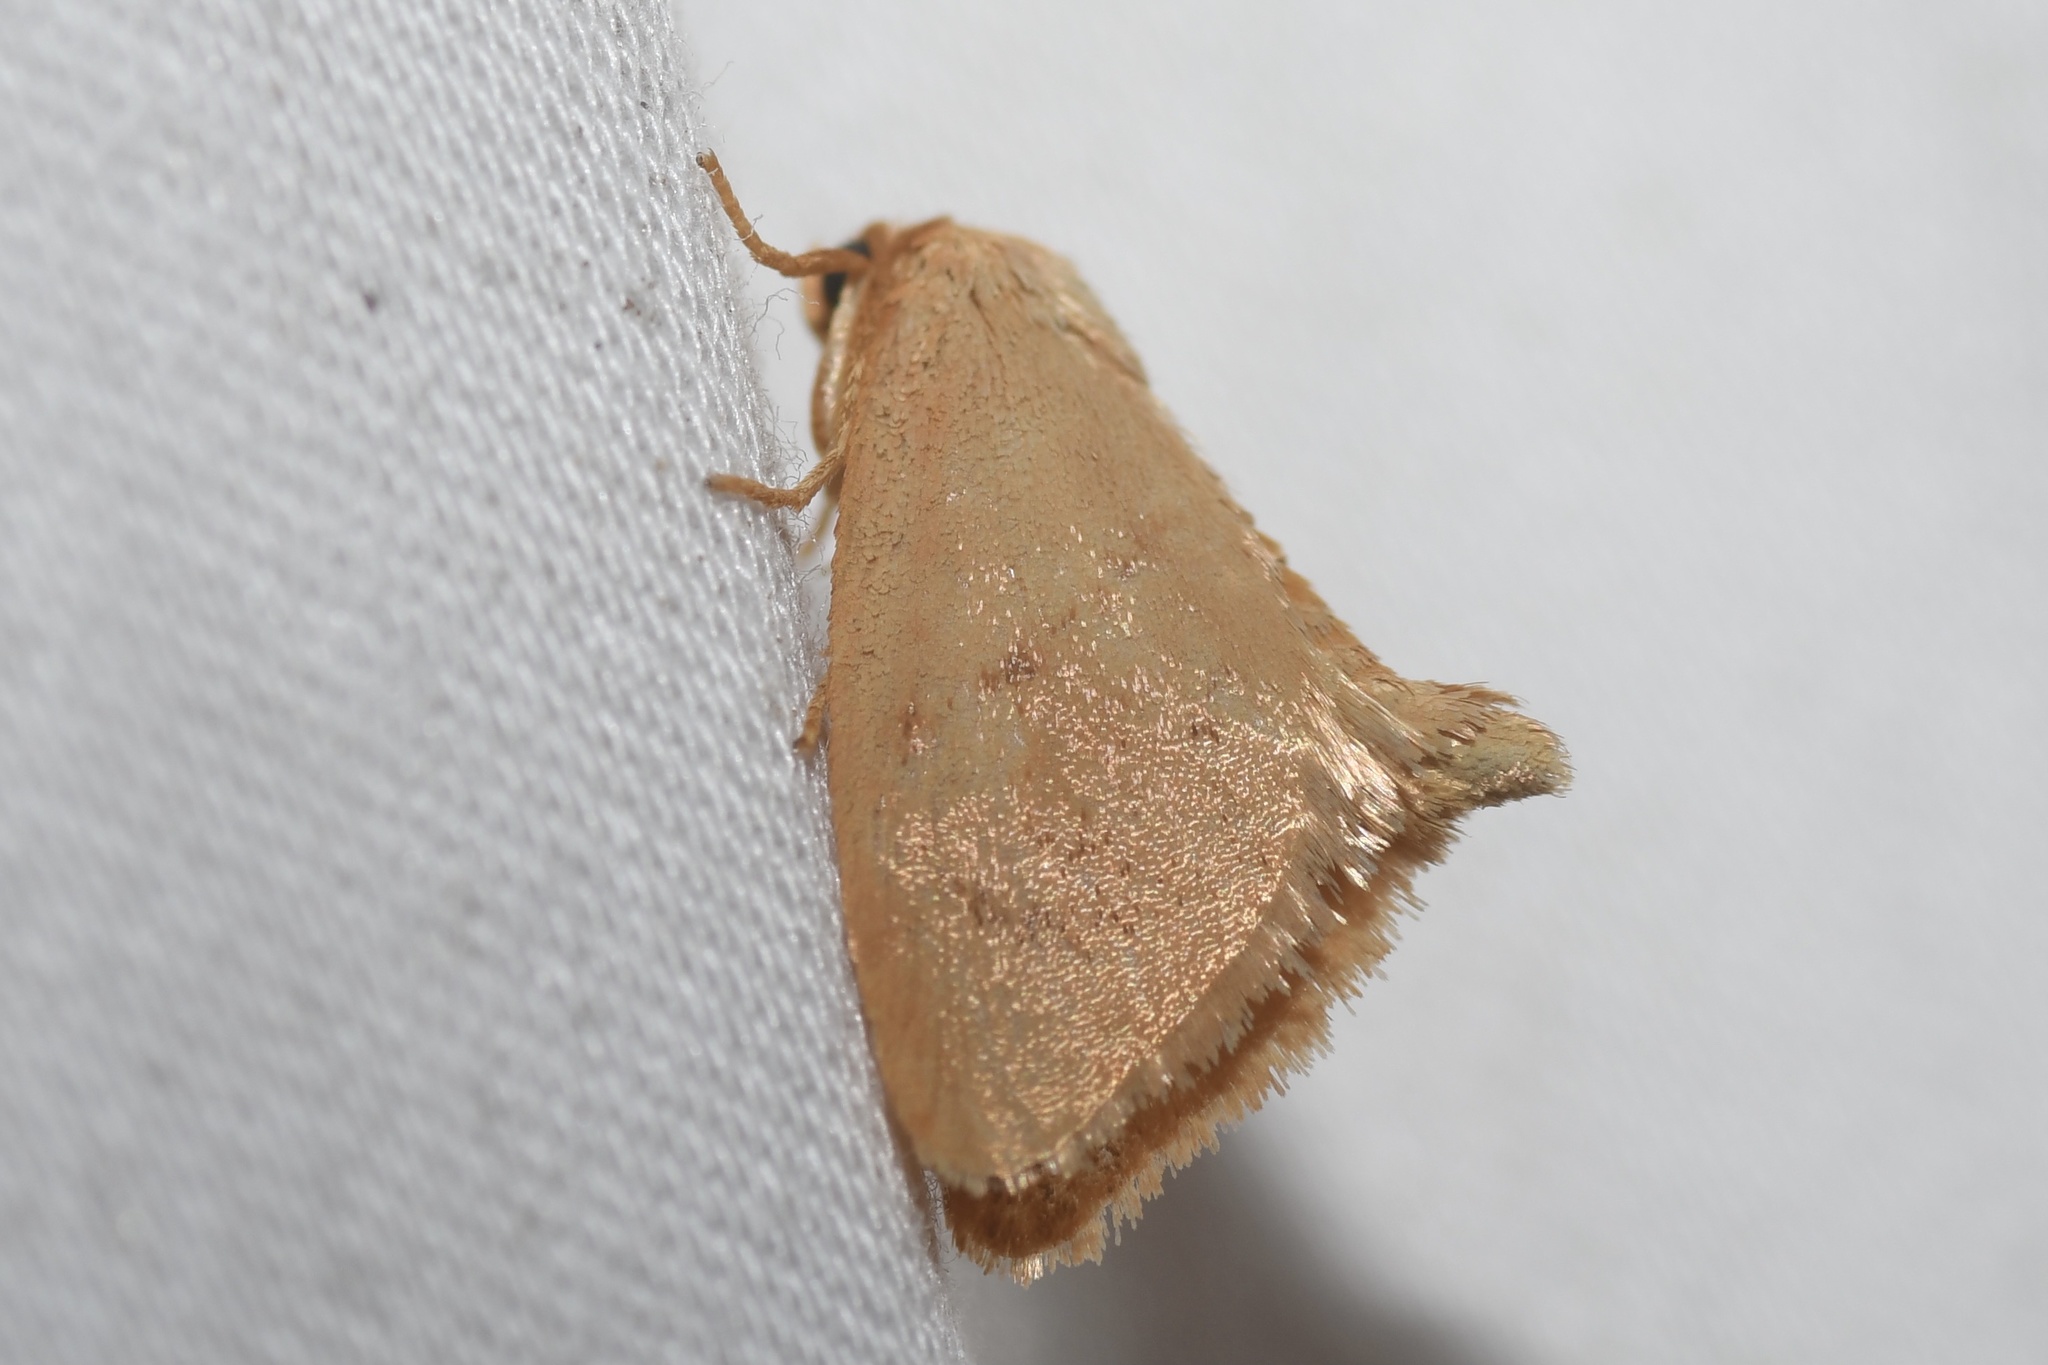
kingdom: Animalia
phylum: Arthropoda
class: Insecta
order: Lepidoptera
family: Limacodidae
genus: Tortricidia
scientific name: Tortricidia pallida
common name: Red-crossed button slug moth
